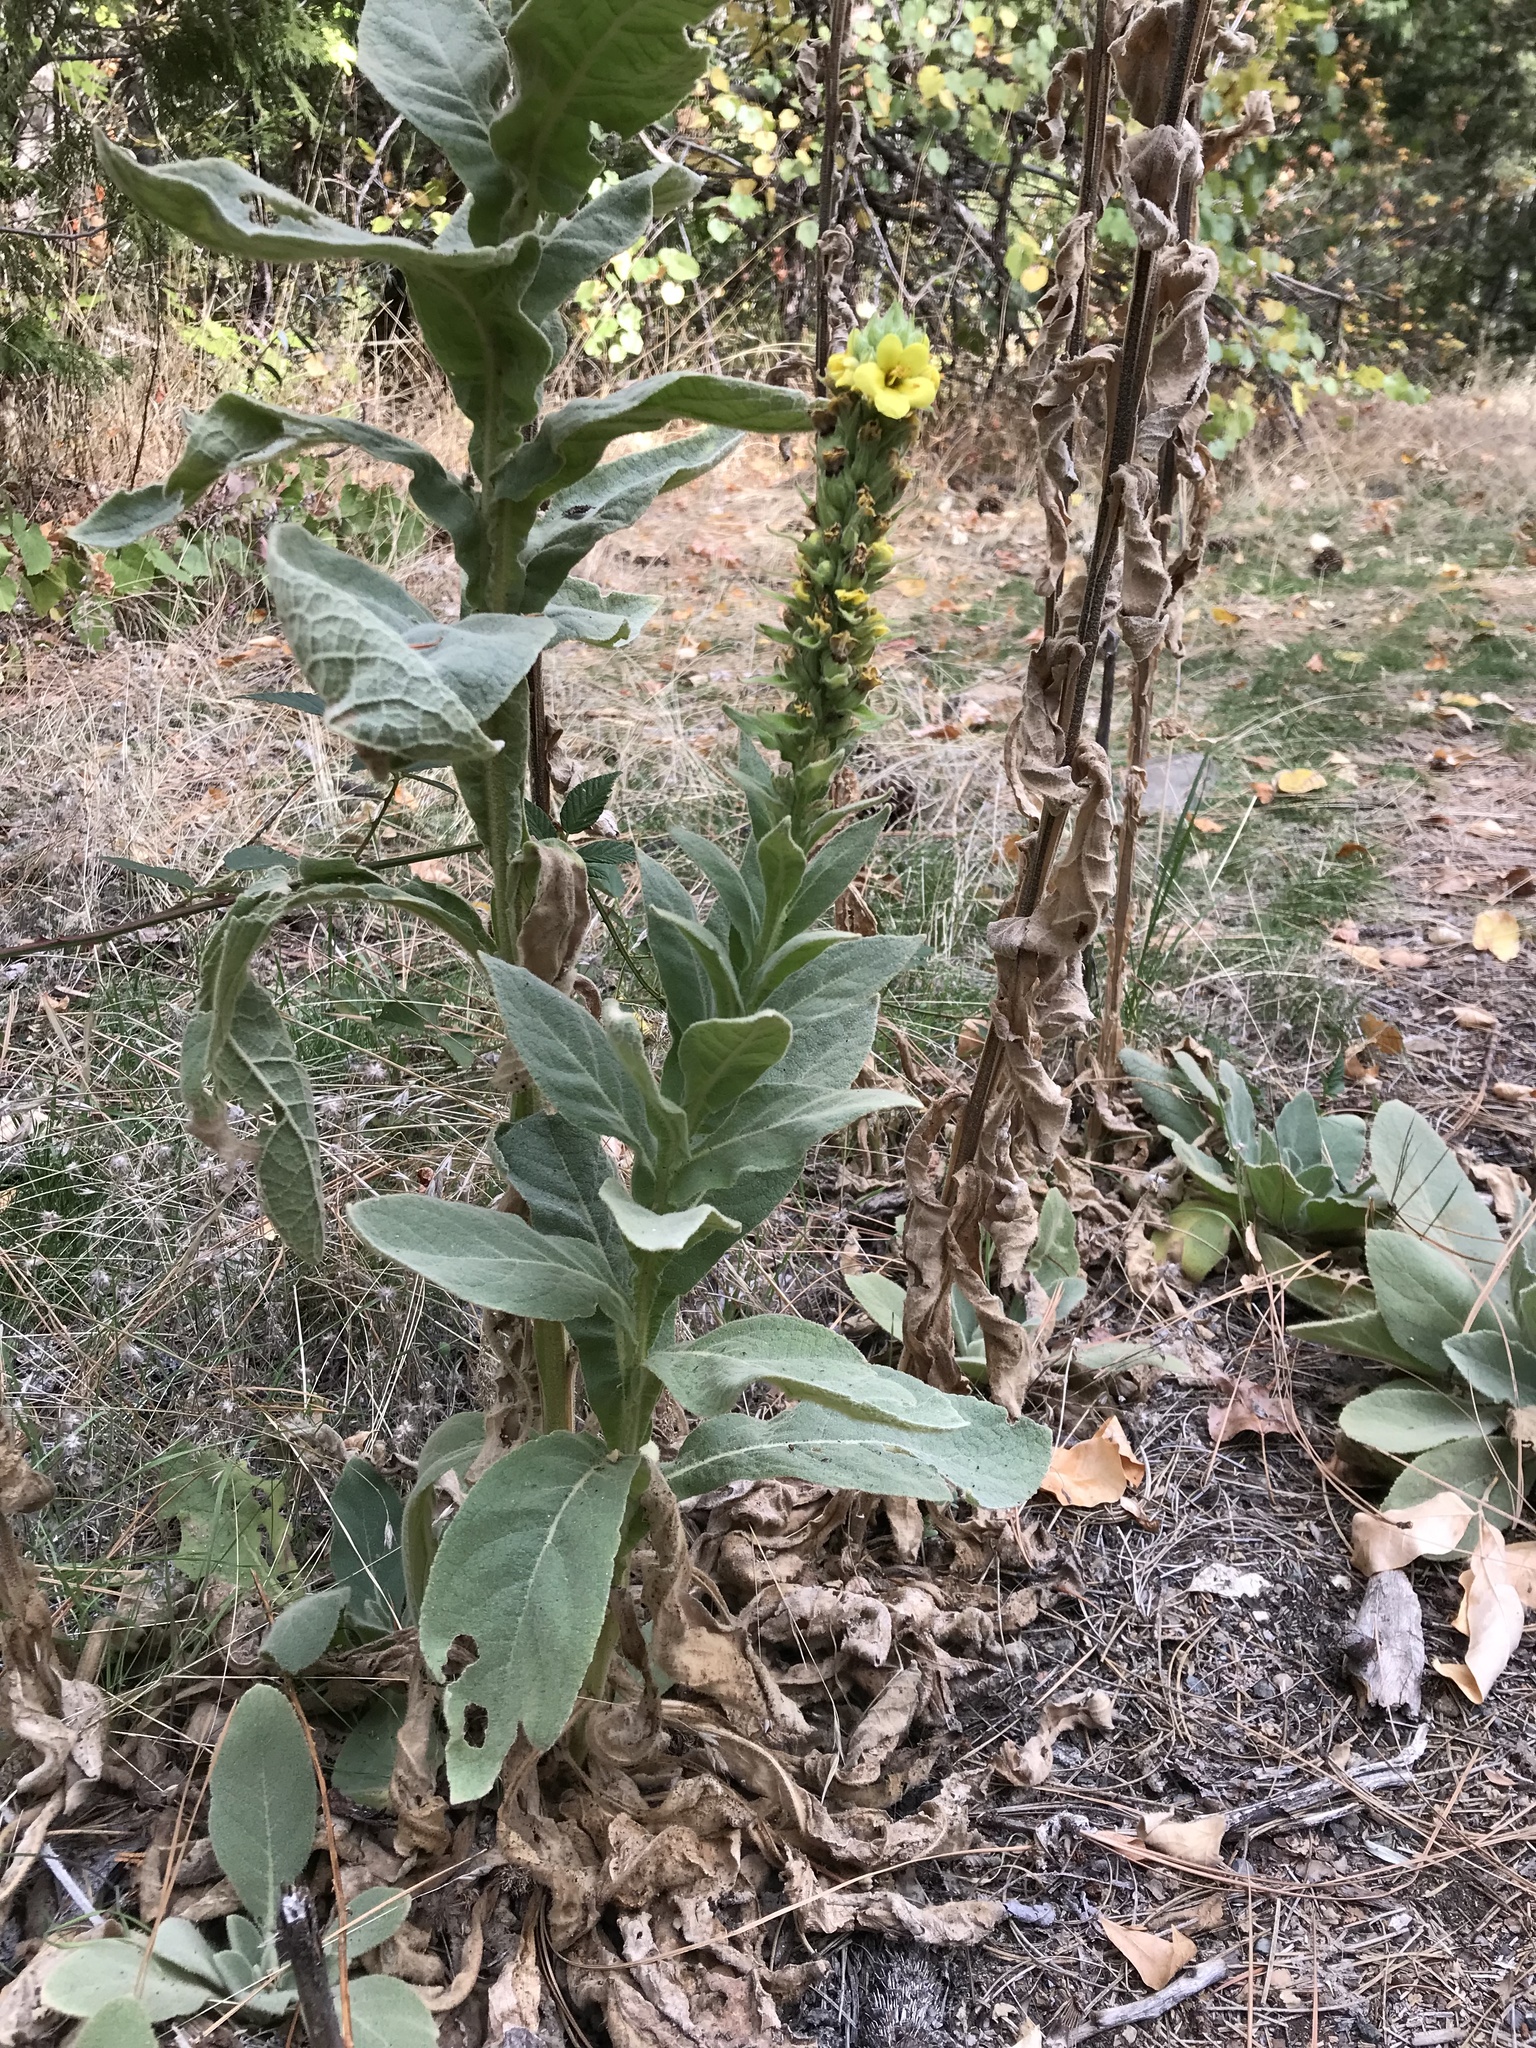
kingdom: Plantae
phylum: Tracheophyta
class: Magnoliopsida
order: Lamiales
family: Scrophulariaceae
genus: Verbascum
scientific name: Verbascum thapsus
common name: Common mullein
